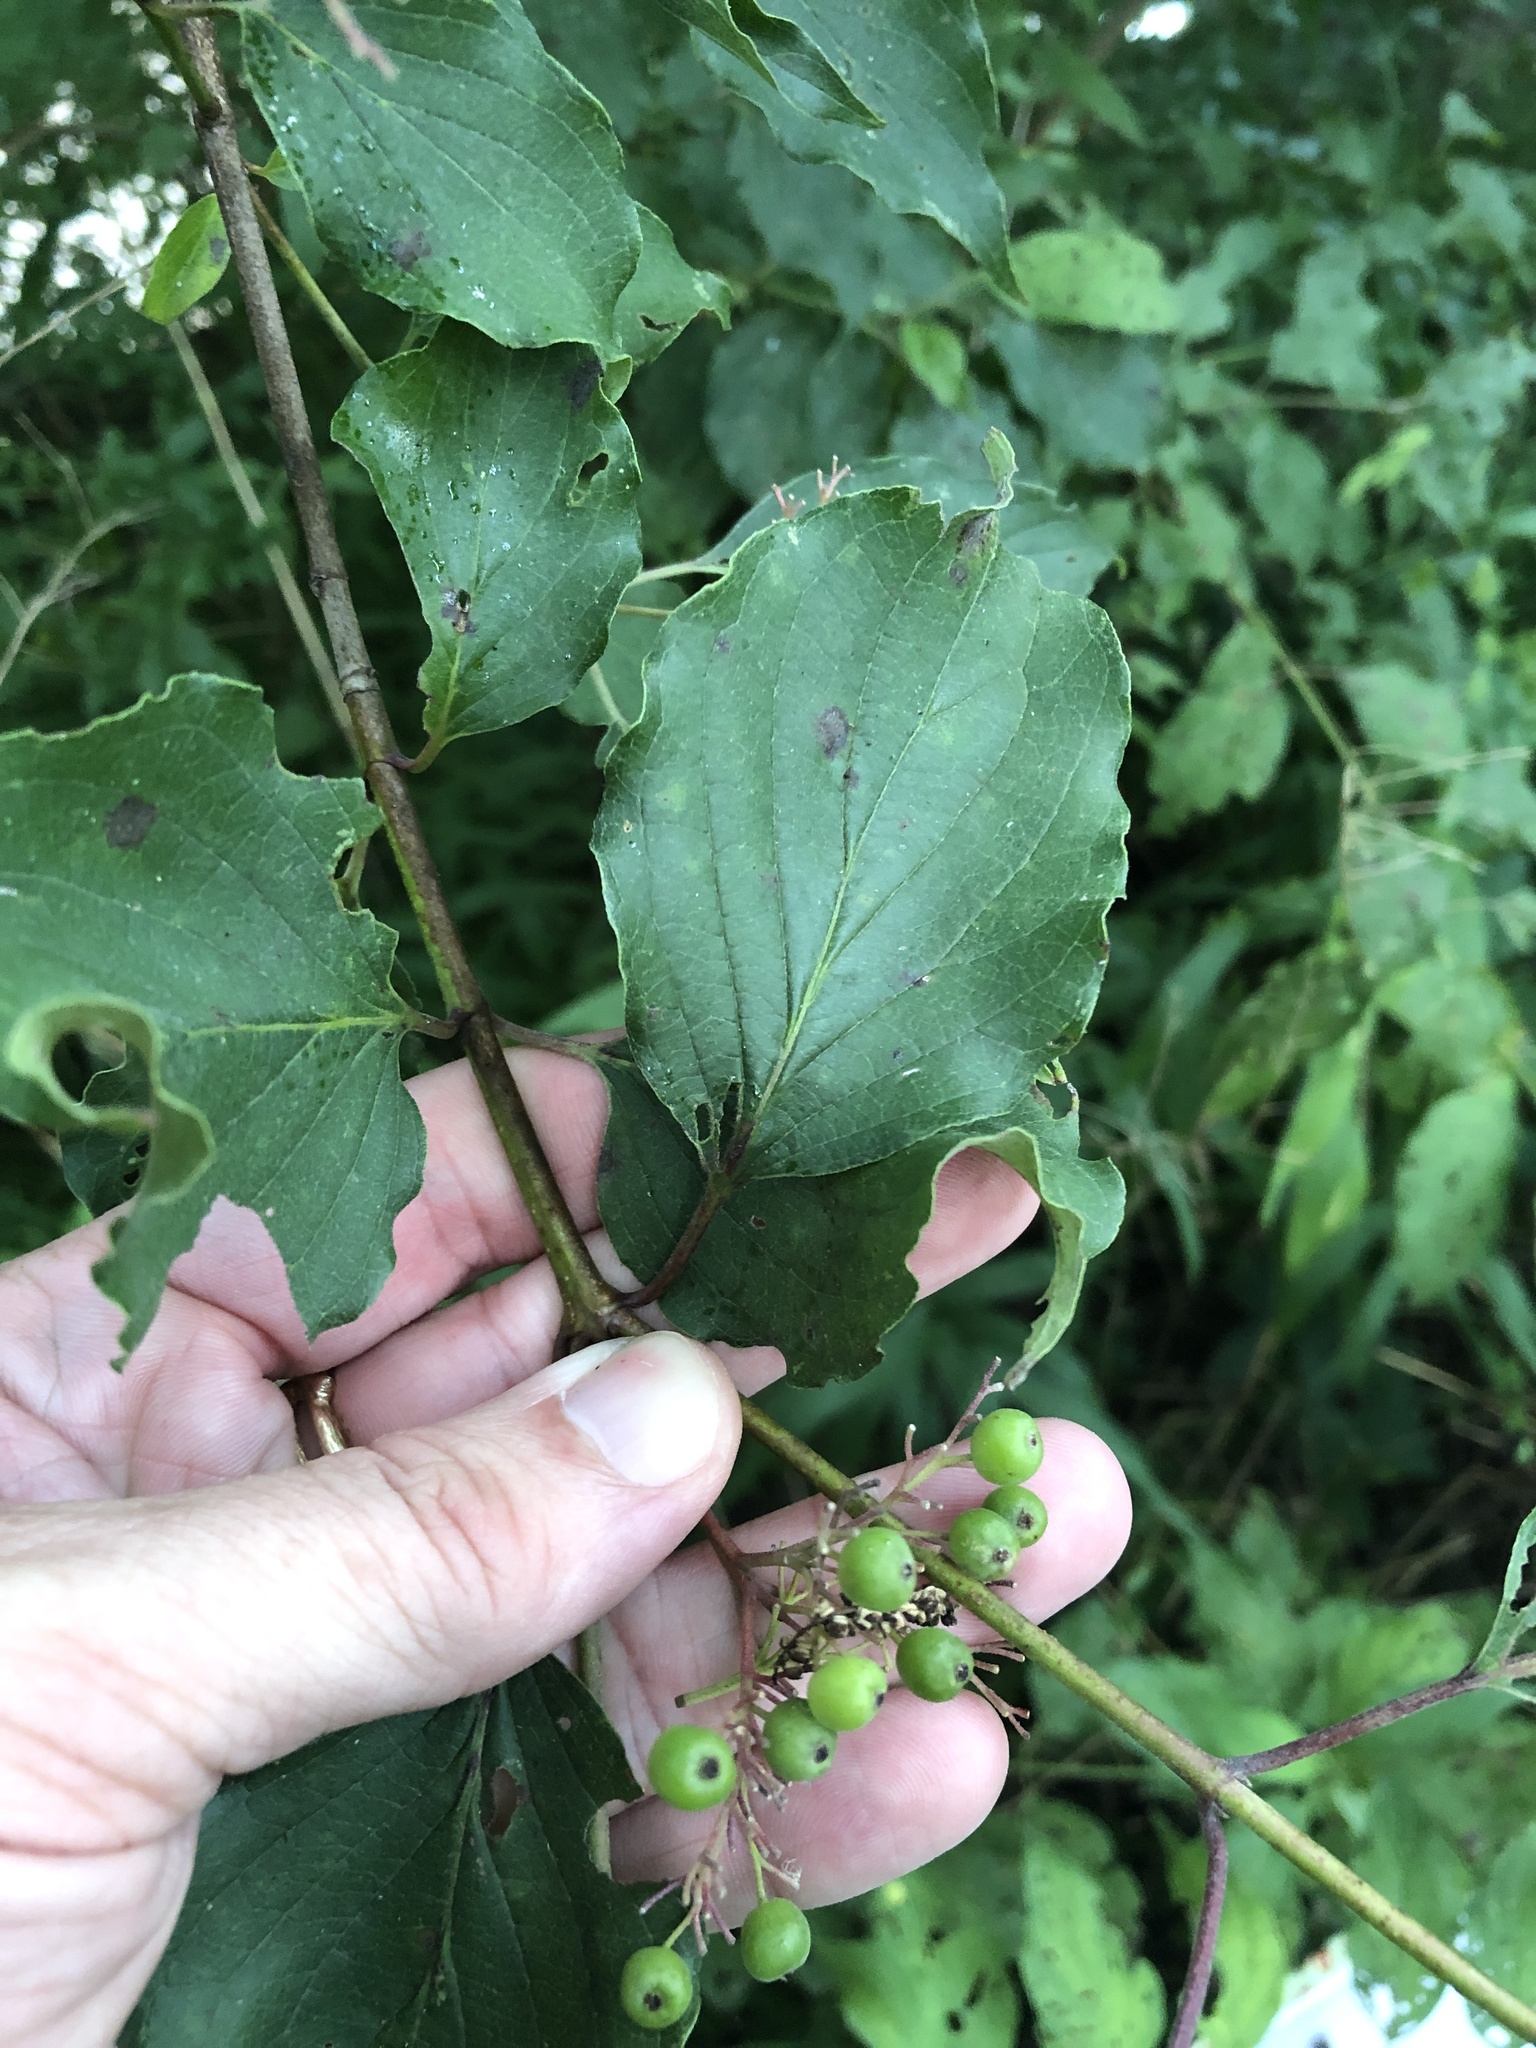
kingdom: Plantae
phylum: Tracheophyta
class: Magnoliopsida
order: Cornales
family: Cornaceae
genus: Cornus
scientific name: Cornus drummondii
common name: Rough-leaf dogwood
